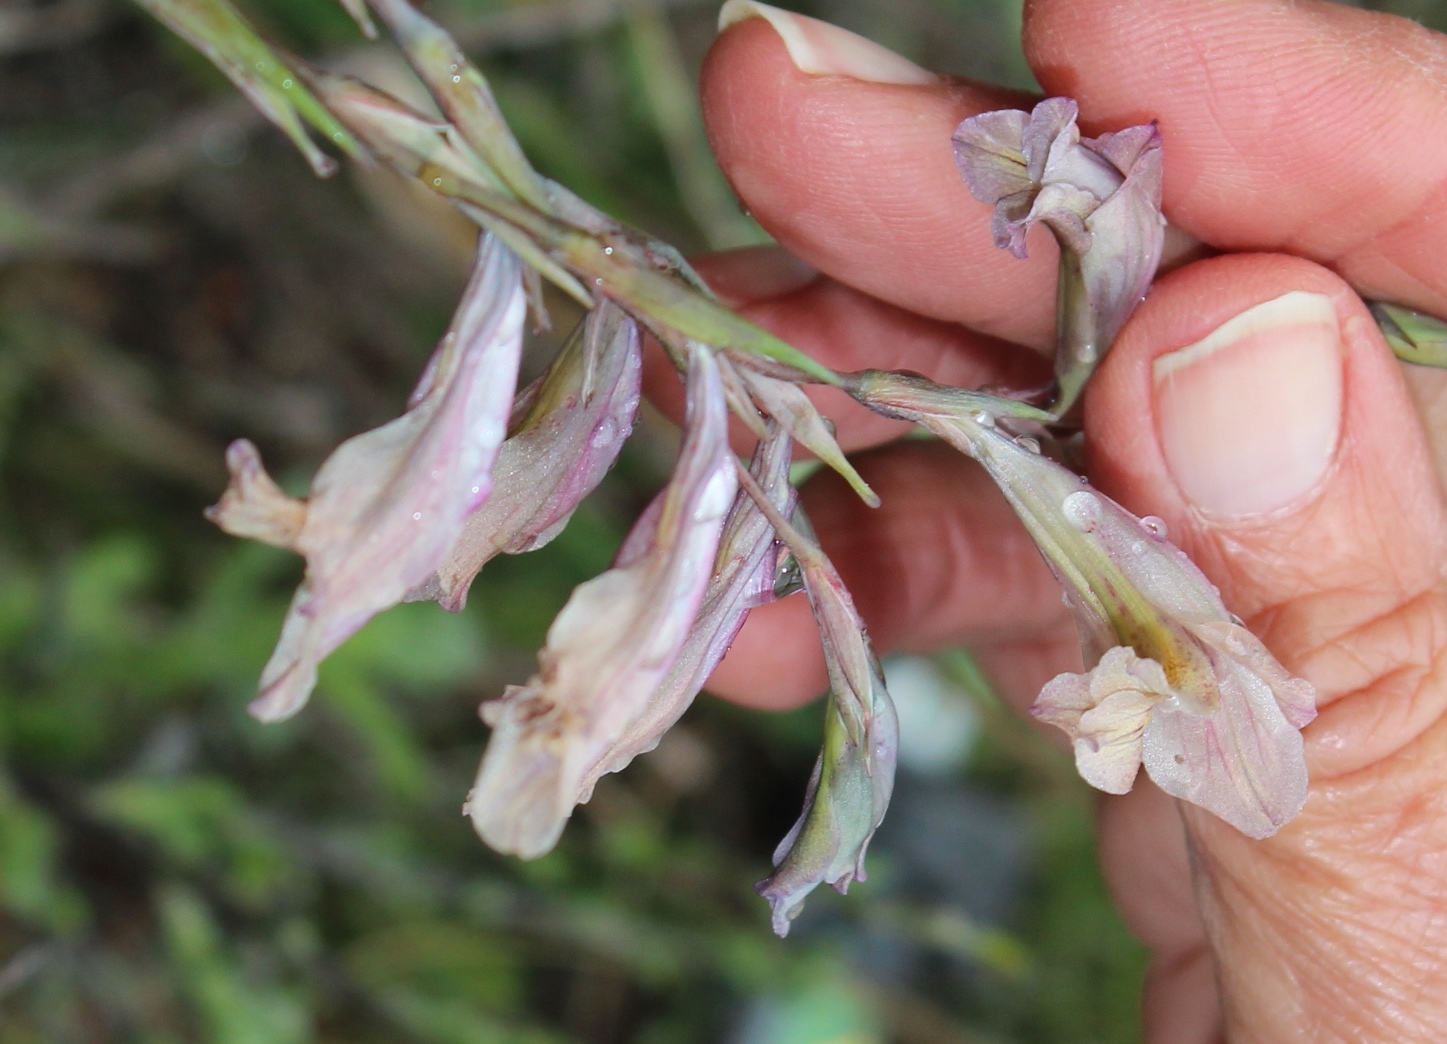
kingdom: Plantae
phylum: Tracheophyta
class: Liliopsida
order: Asparagales
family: Iridaceae
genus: Gladiolus
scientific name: Gladiolus brevifolius
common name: March pypie
